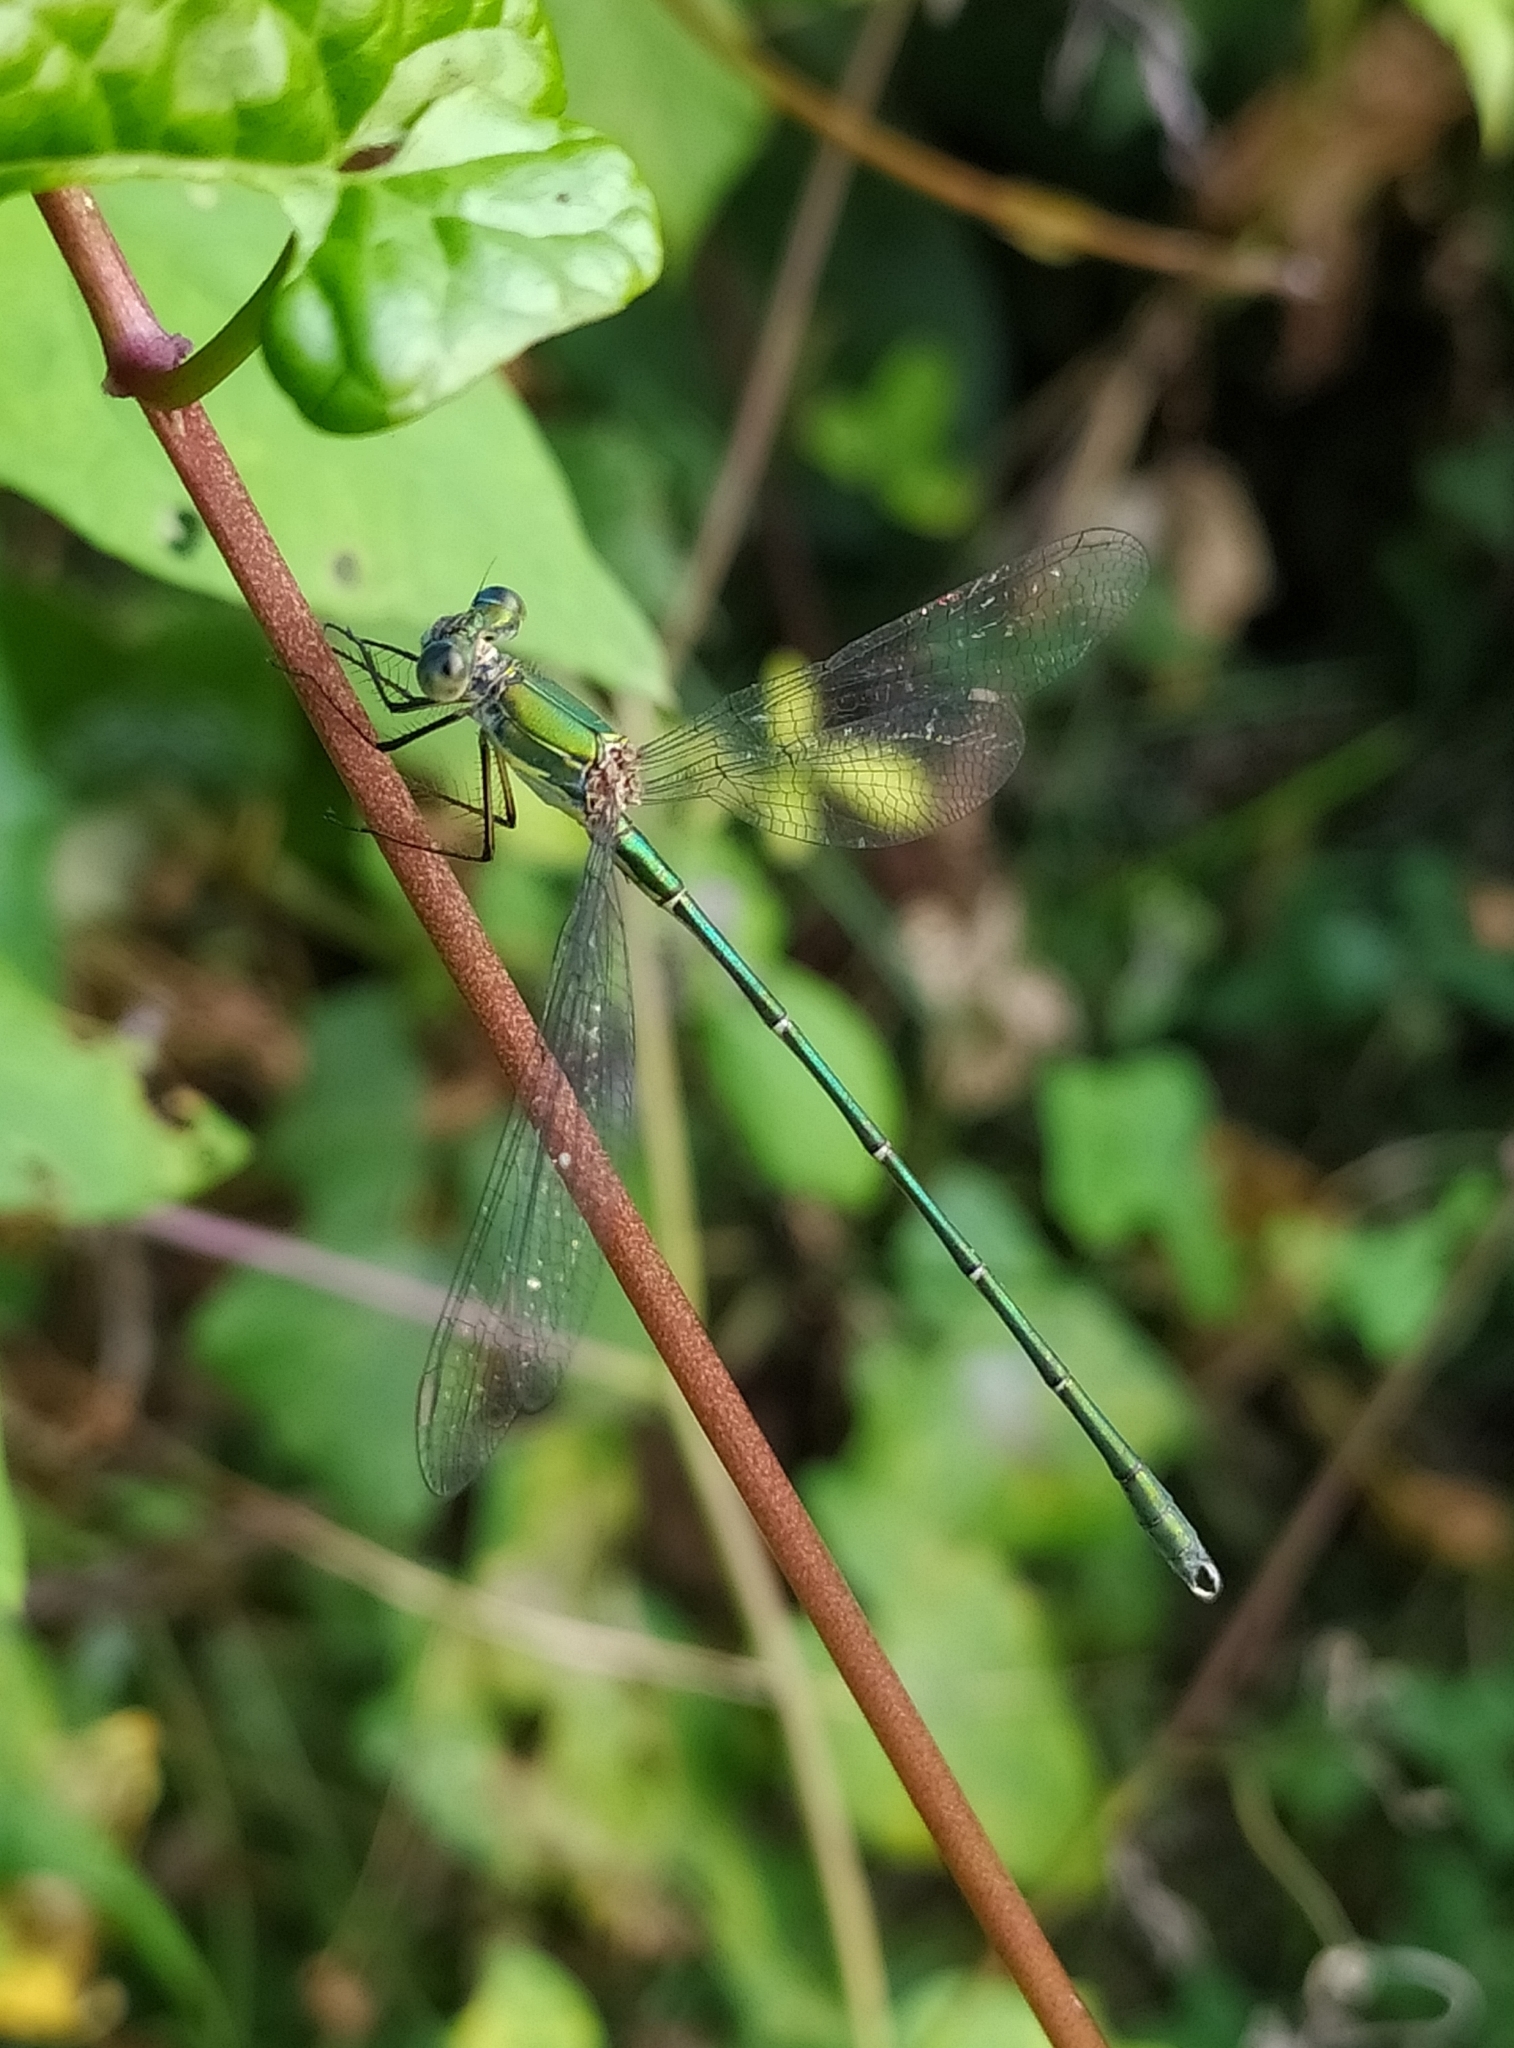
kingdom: Animalia
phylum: Arthropoda
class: Insecta
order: Odonata
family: Lestidae
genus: Chalcolestes
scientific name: Chalcolestes viridis
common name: Green emerald damselfly
